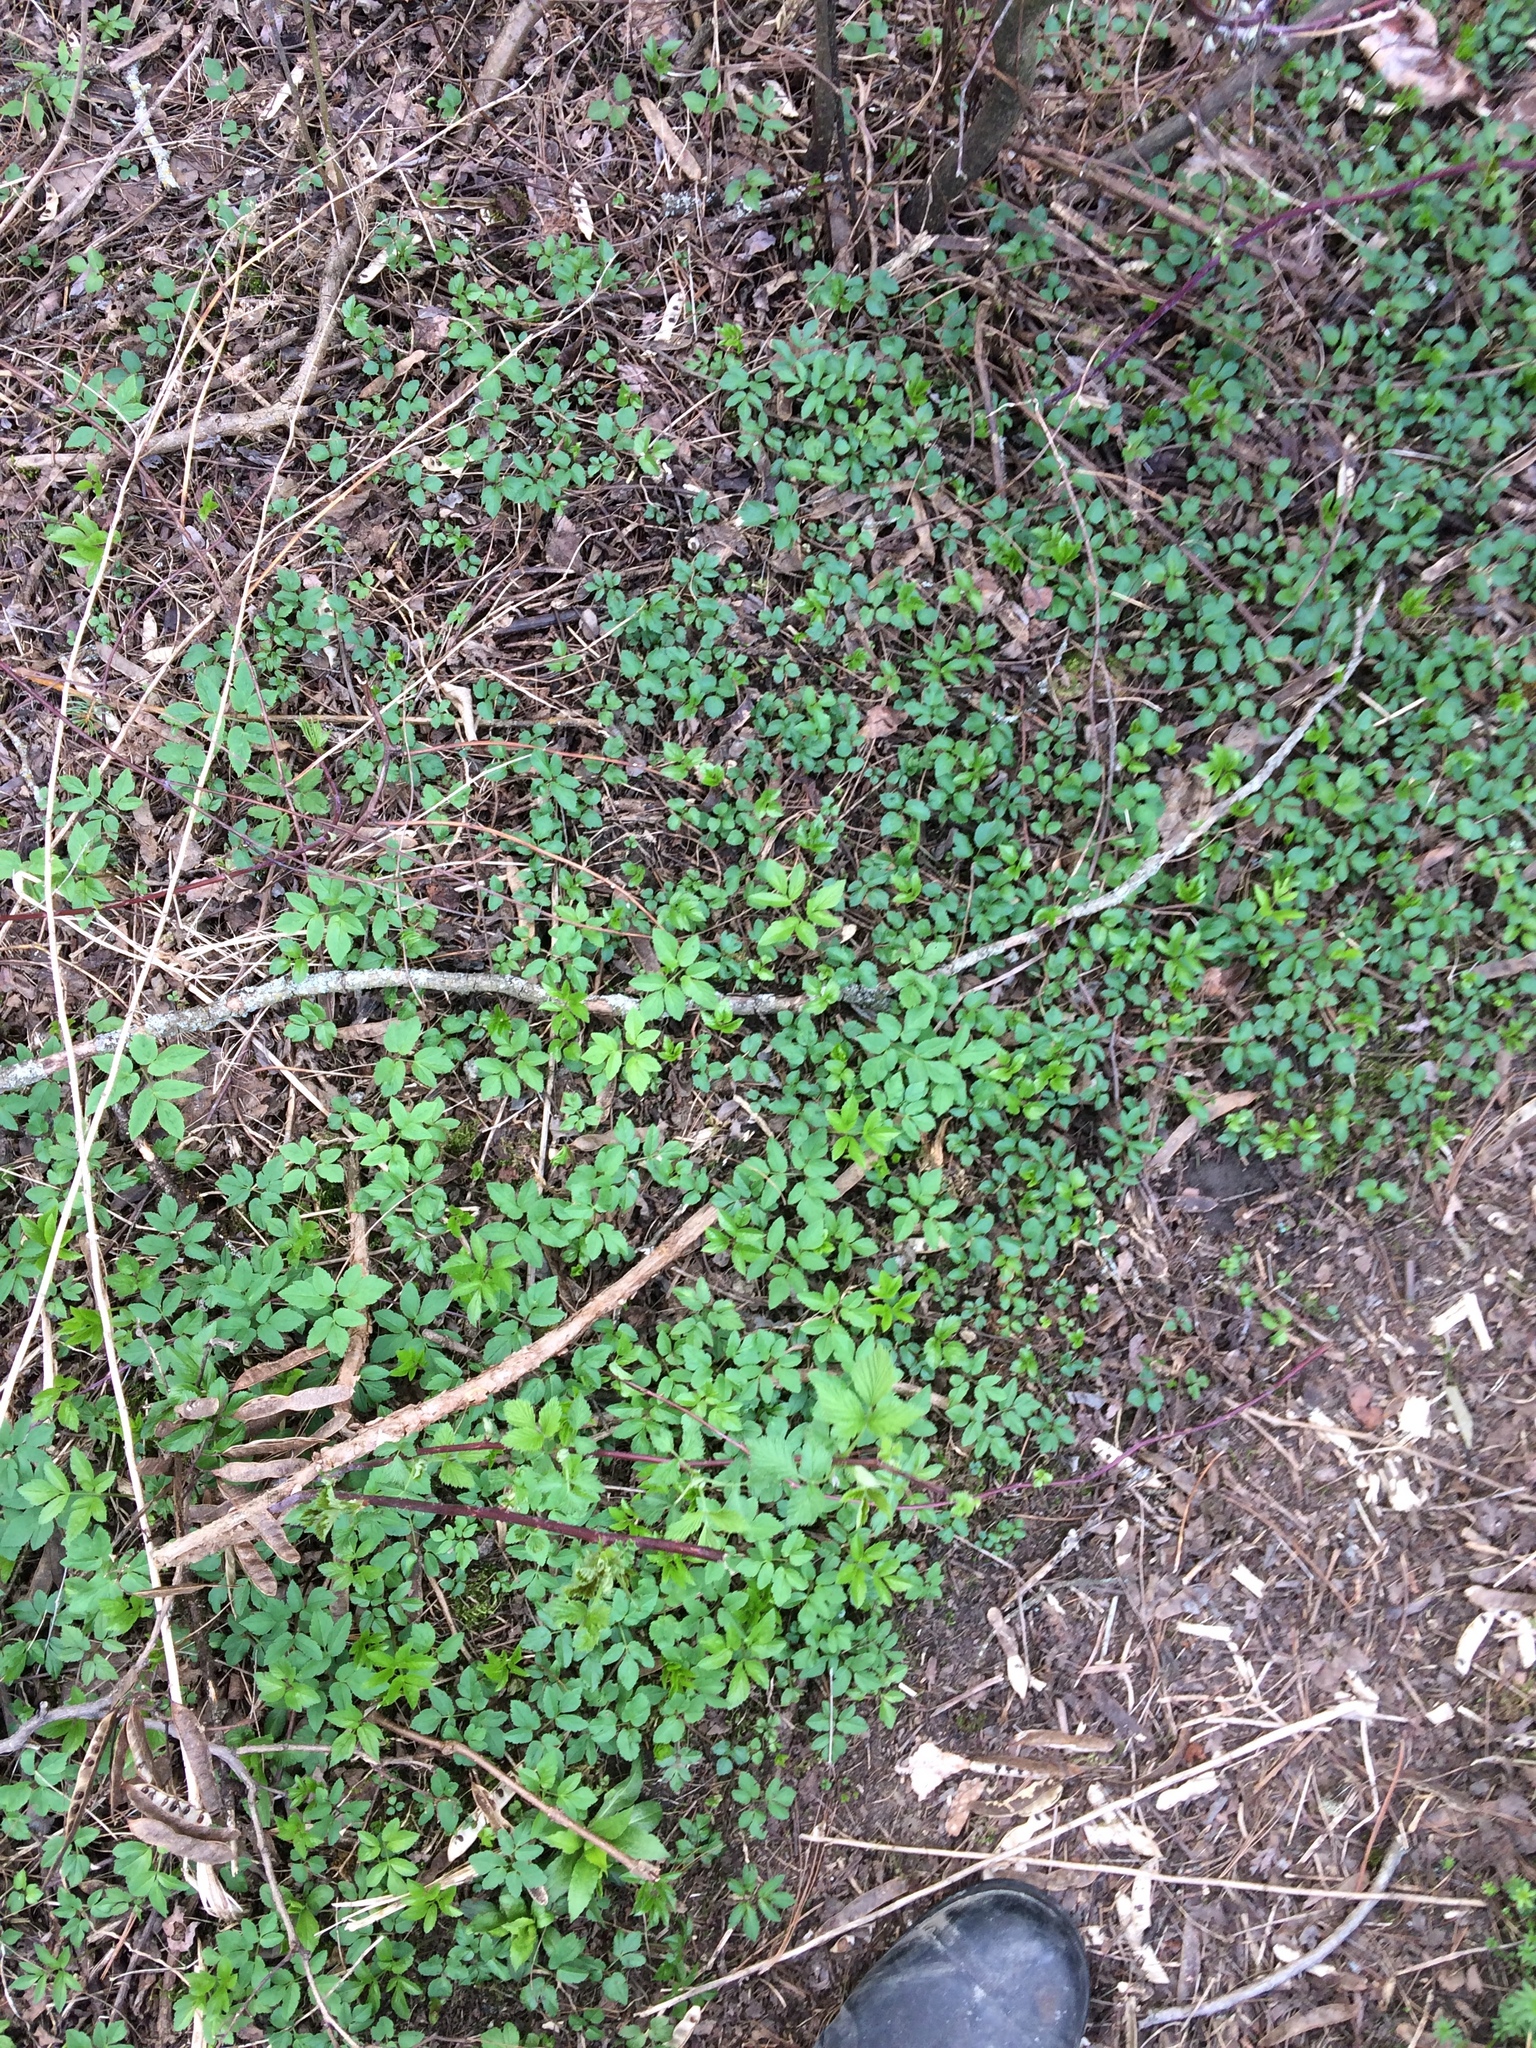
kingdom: Plantae
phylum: Tracheophyta
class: Magnoliopsida
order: Apiales
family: Apiaceae
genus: Aegopodium
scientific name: Aegopodium podagraria
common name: Ground-elder
